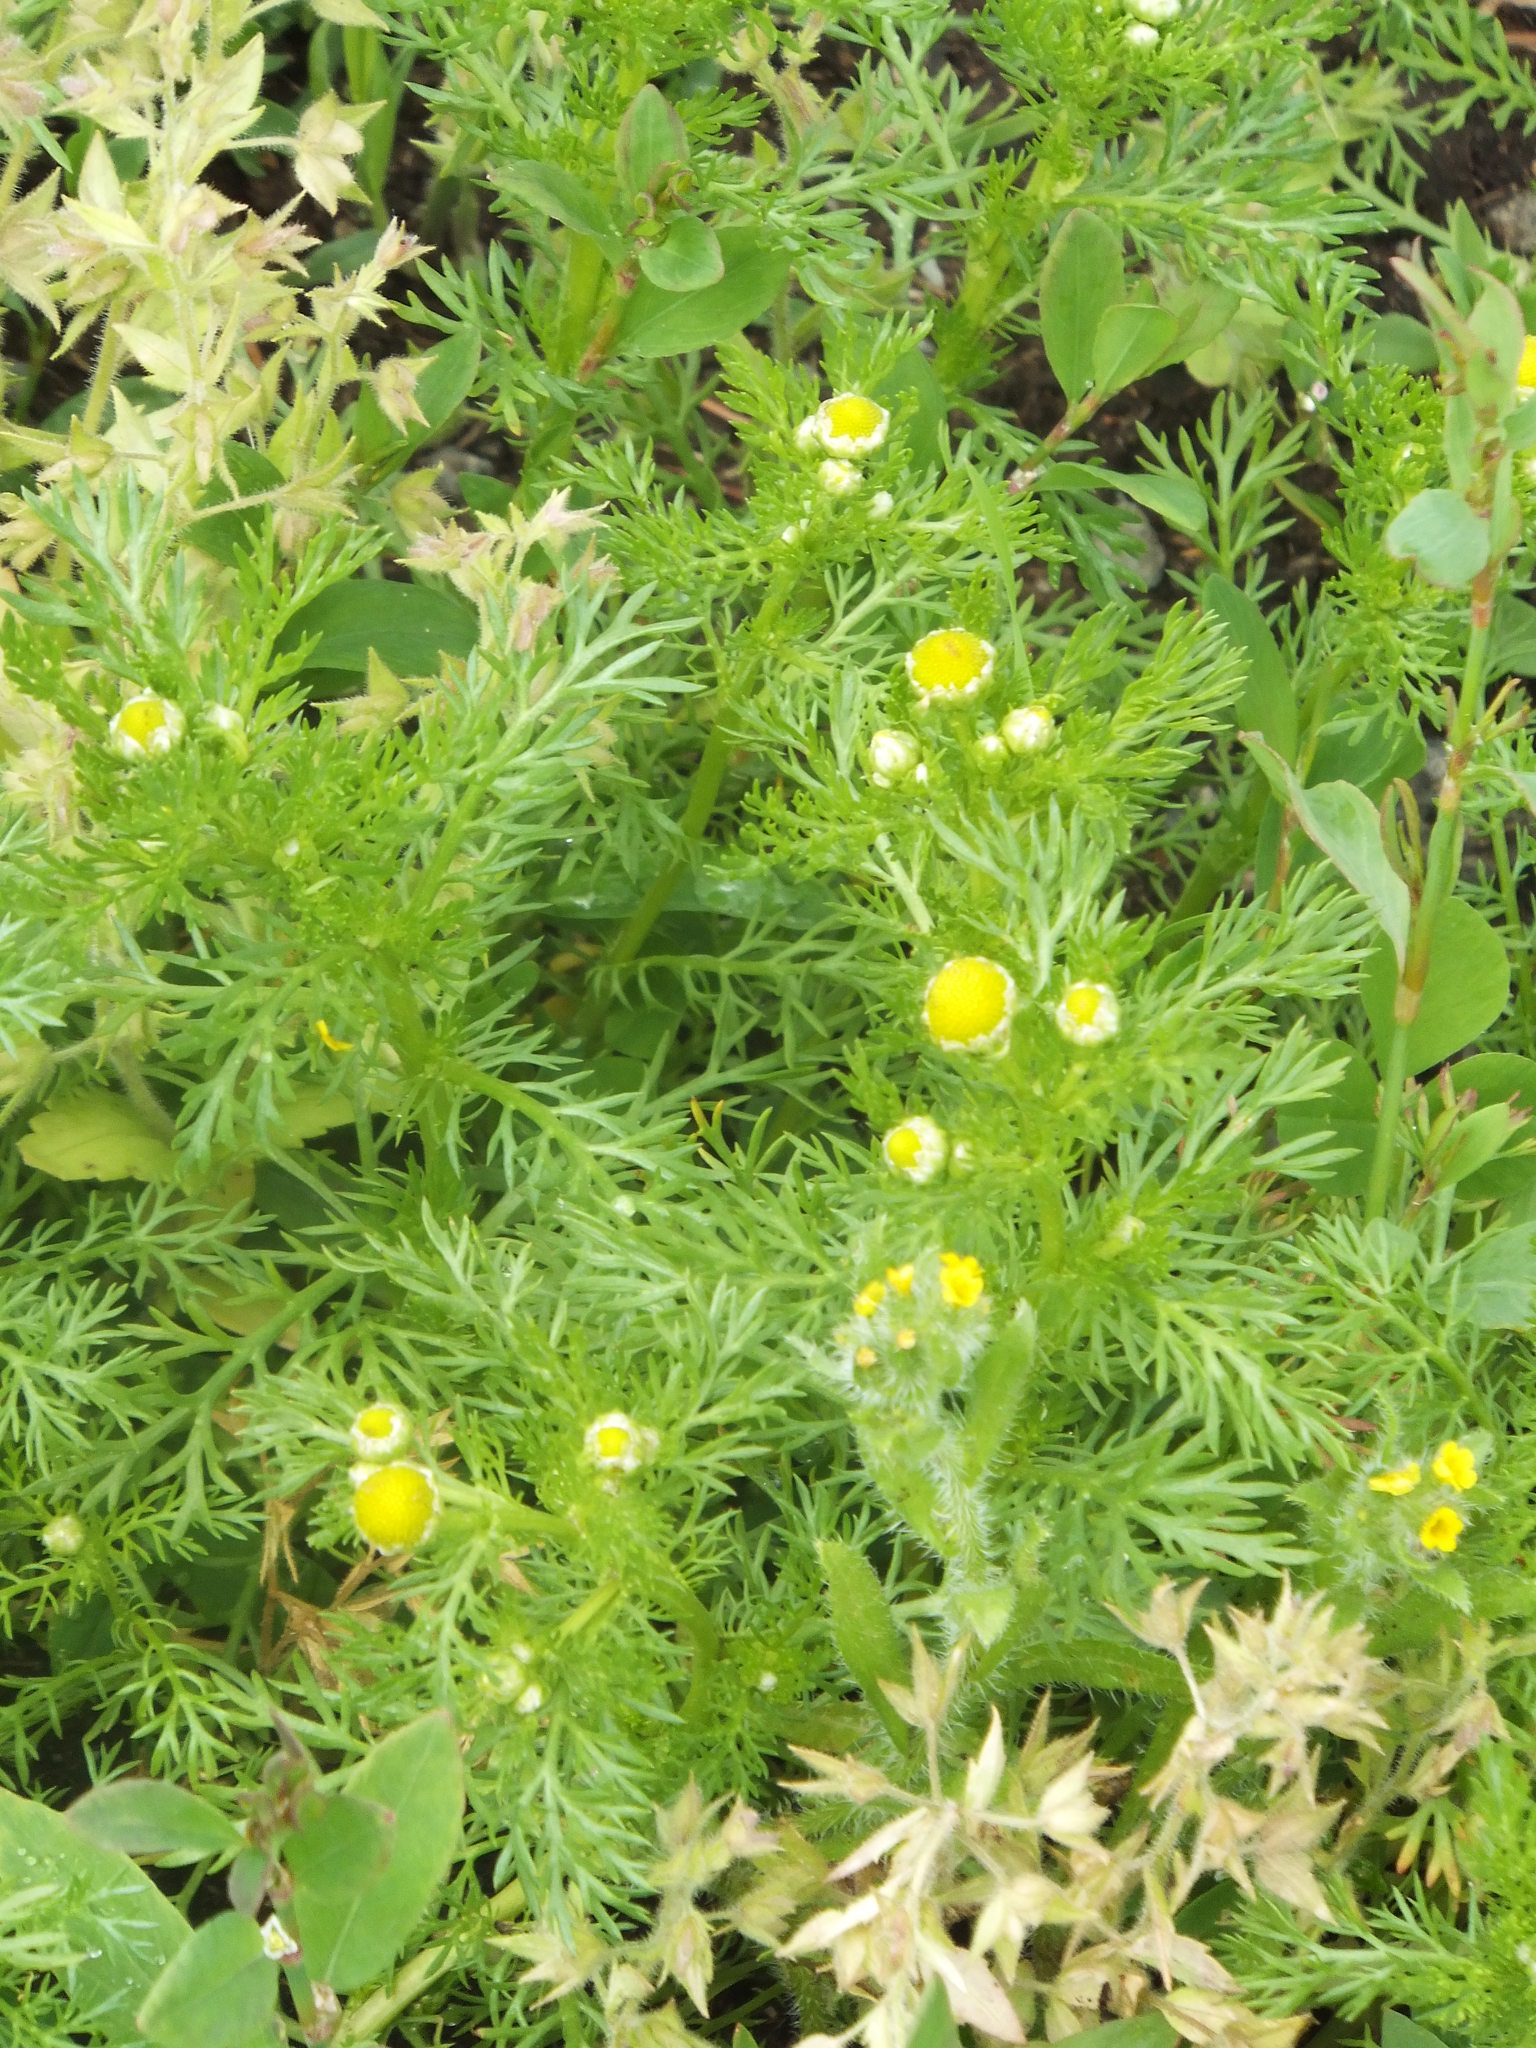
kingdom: Plantae
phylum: Tracheophyta
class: Magnoliopsida
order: Asterales
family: Asteraceae
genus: Matricaria
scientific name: Matricaria discoidea
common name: Disc mayweed
